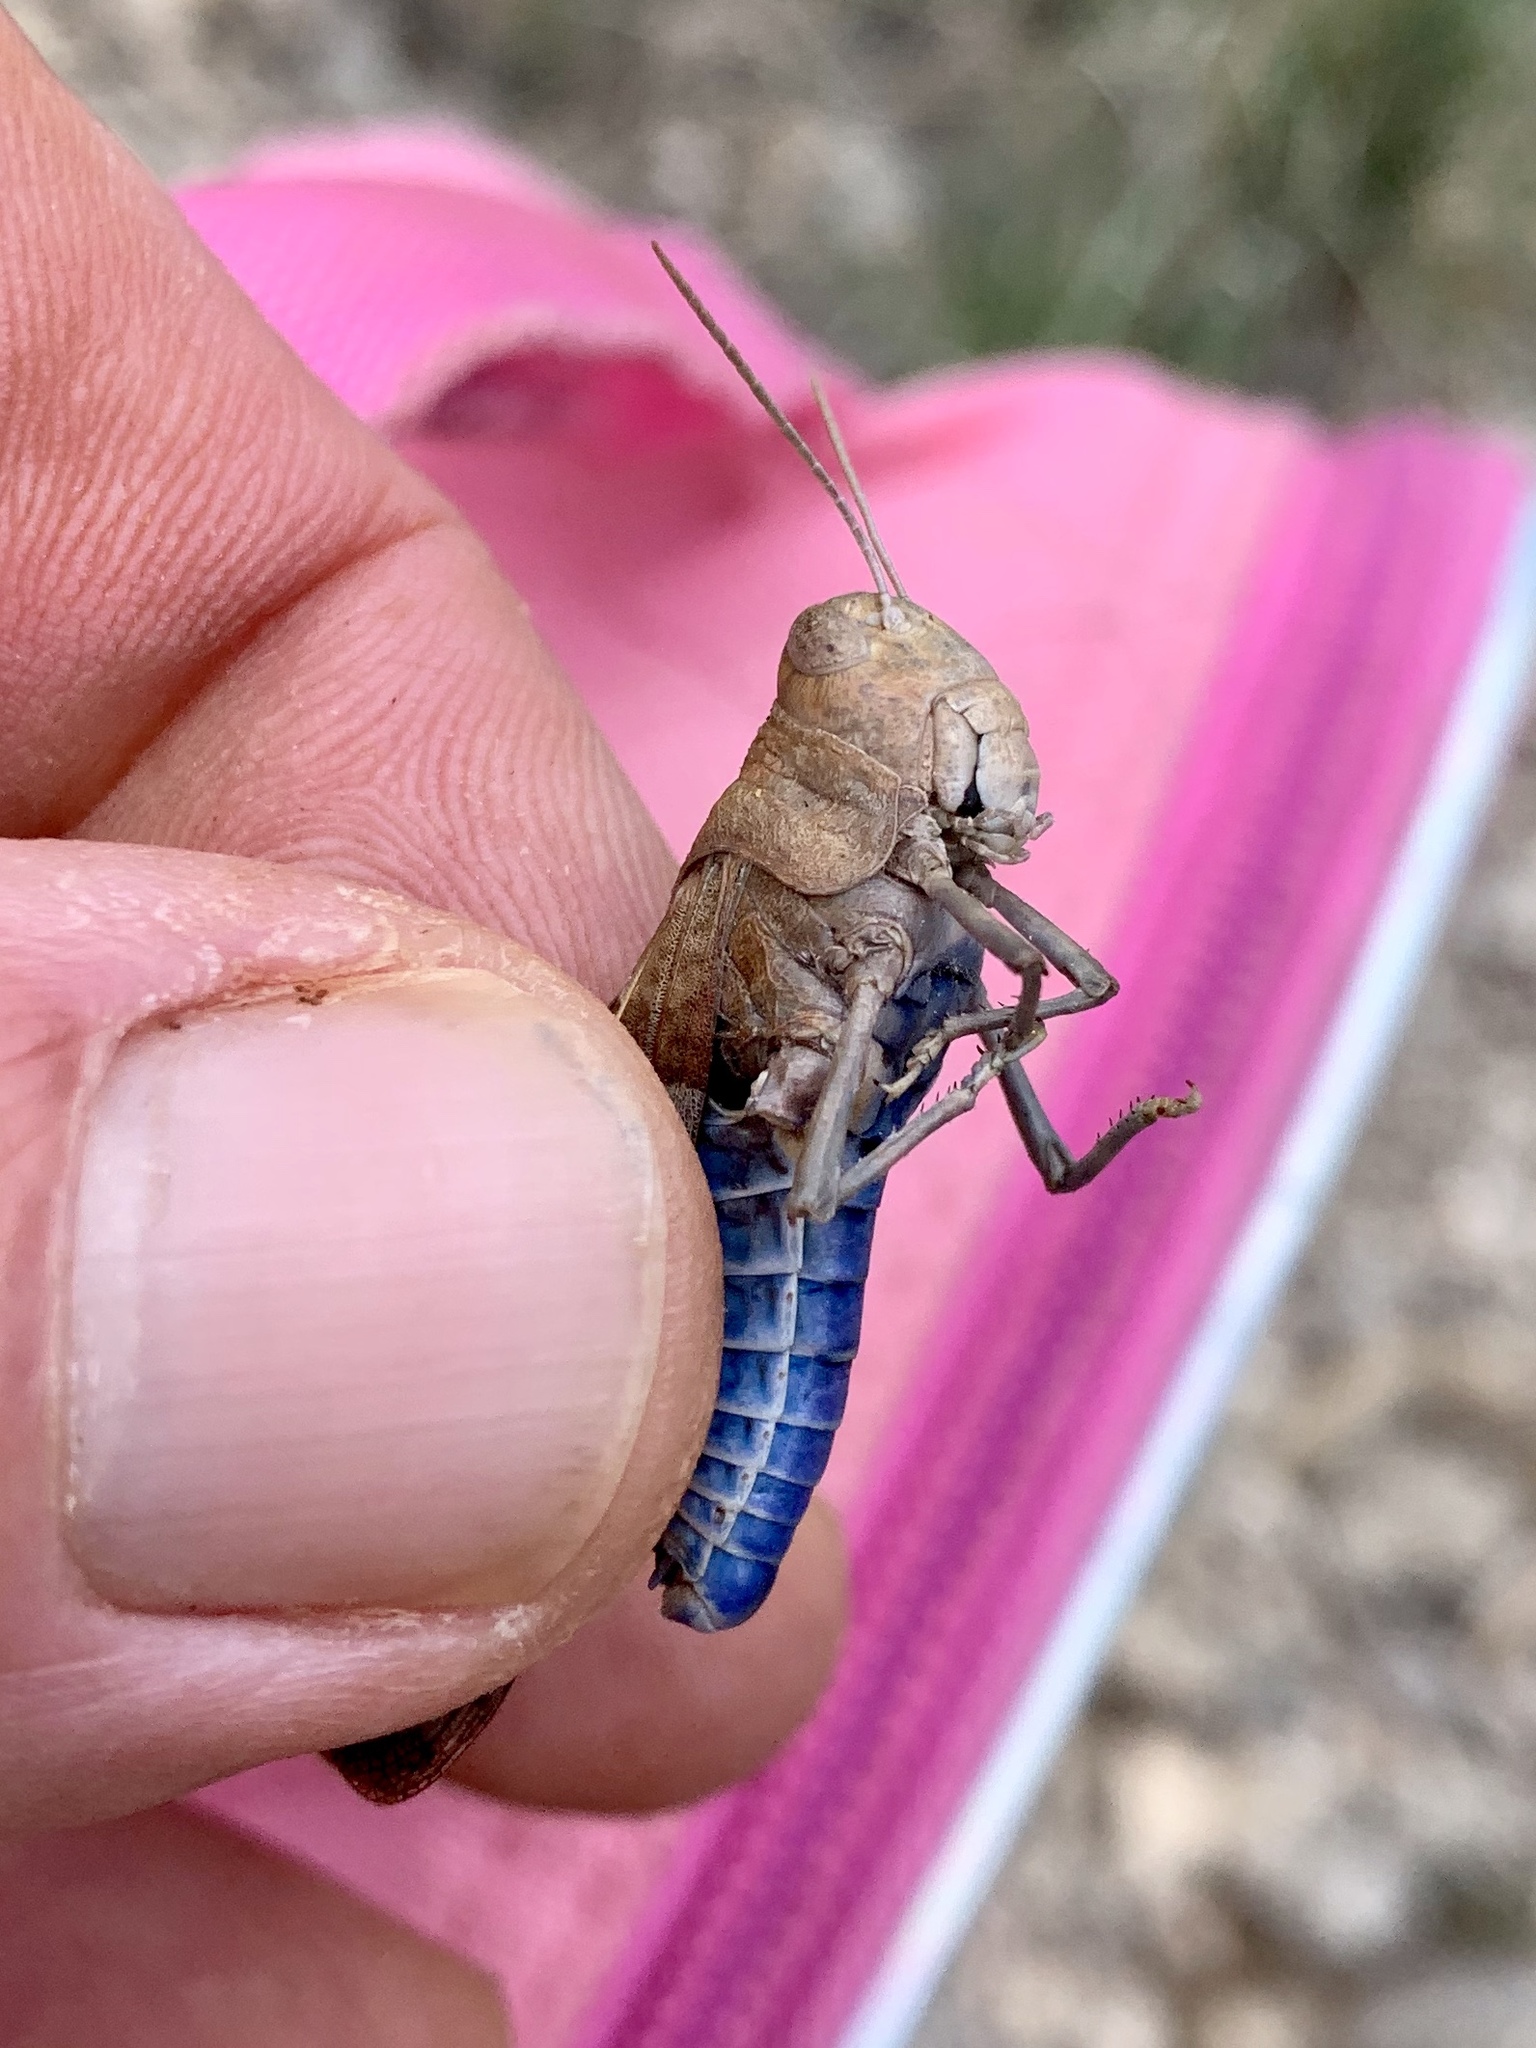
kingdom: Animalia
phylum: Arthropoda
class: Insecta
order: Orthoptera
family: Acrididae
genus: Leprus
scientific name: Leprus intermedius
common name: Saussure's blue-winged grasshopper
